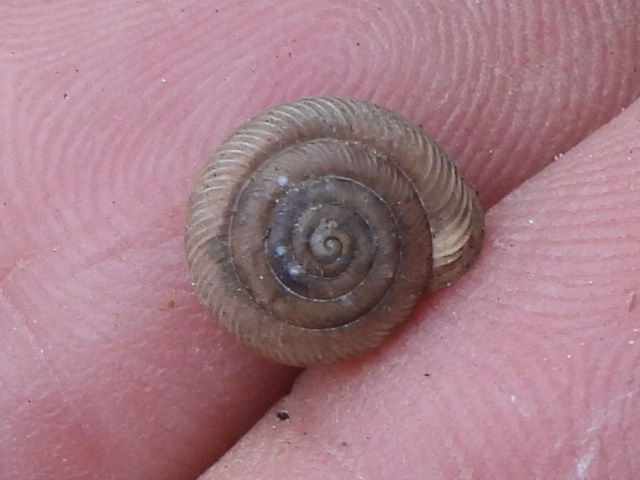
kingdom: Animalia
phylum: Mollusca
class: Gastropoda
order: Stylommatophora
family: Polygyridae
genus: Linisa
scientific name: Linisa texasiana
